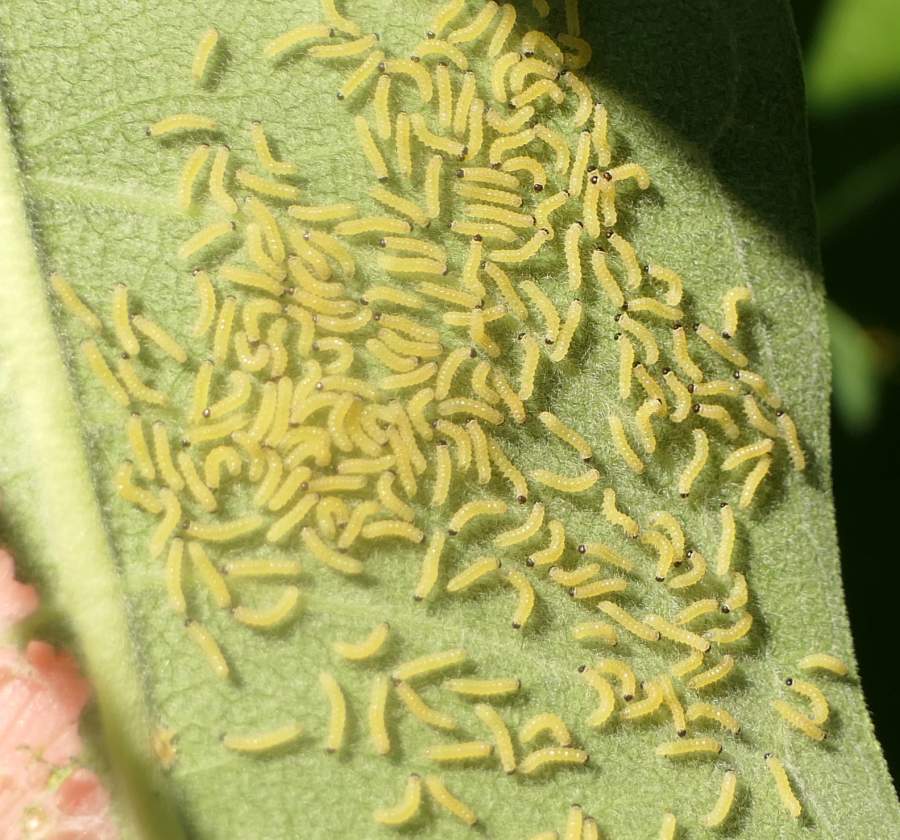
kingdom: Animalia
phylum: Arthropoda
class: Insecta
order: Lepidoptera
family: Erebidae
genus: Euchaetes
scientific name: Euchaetes egle
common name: Milkweed tussock moth
